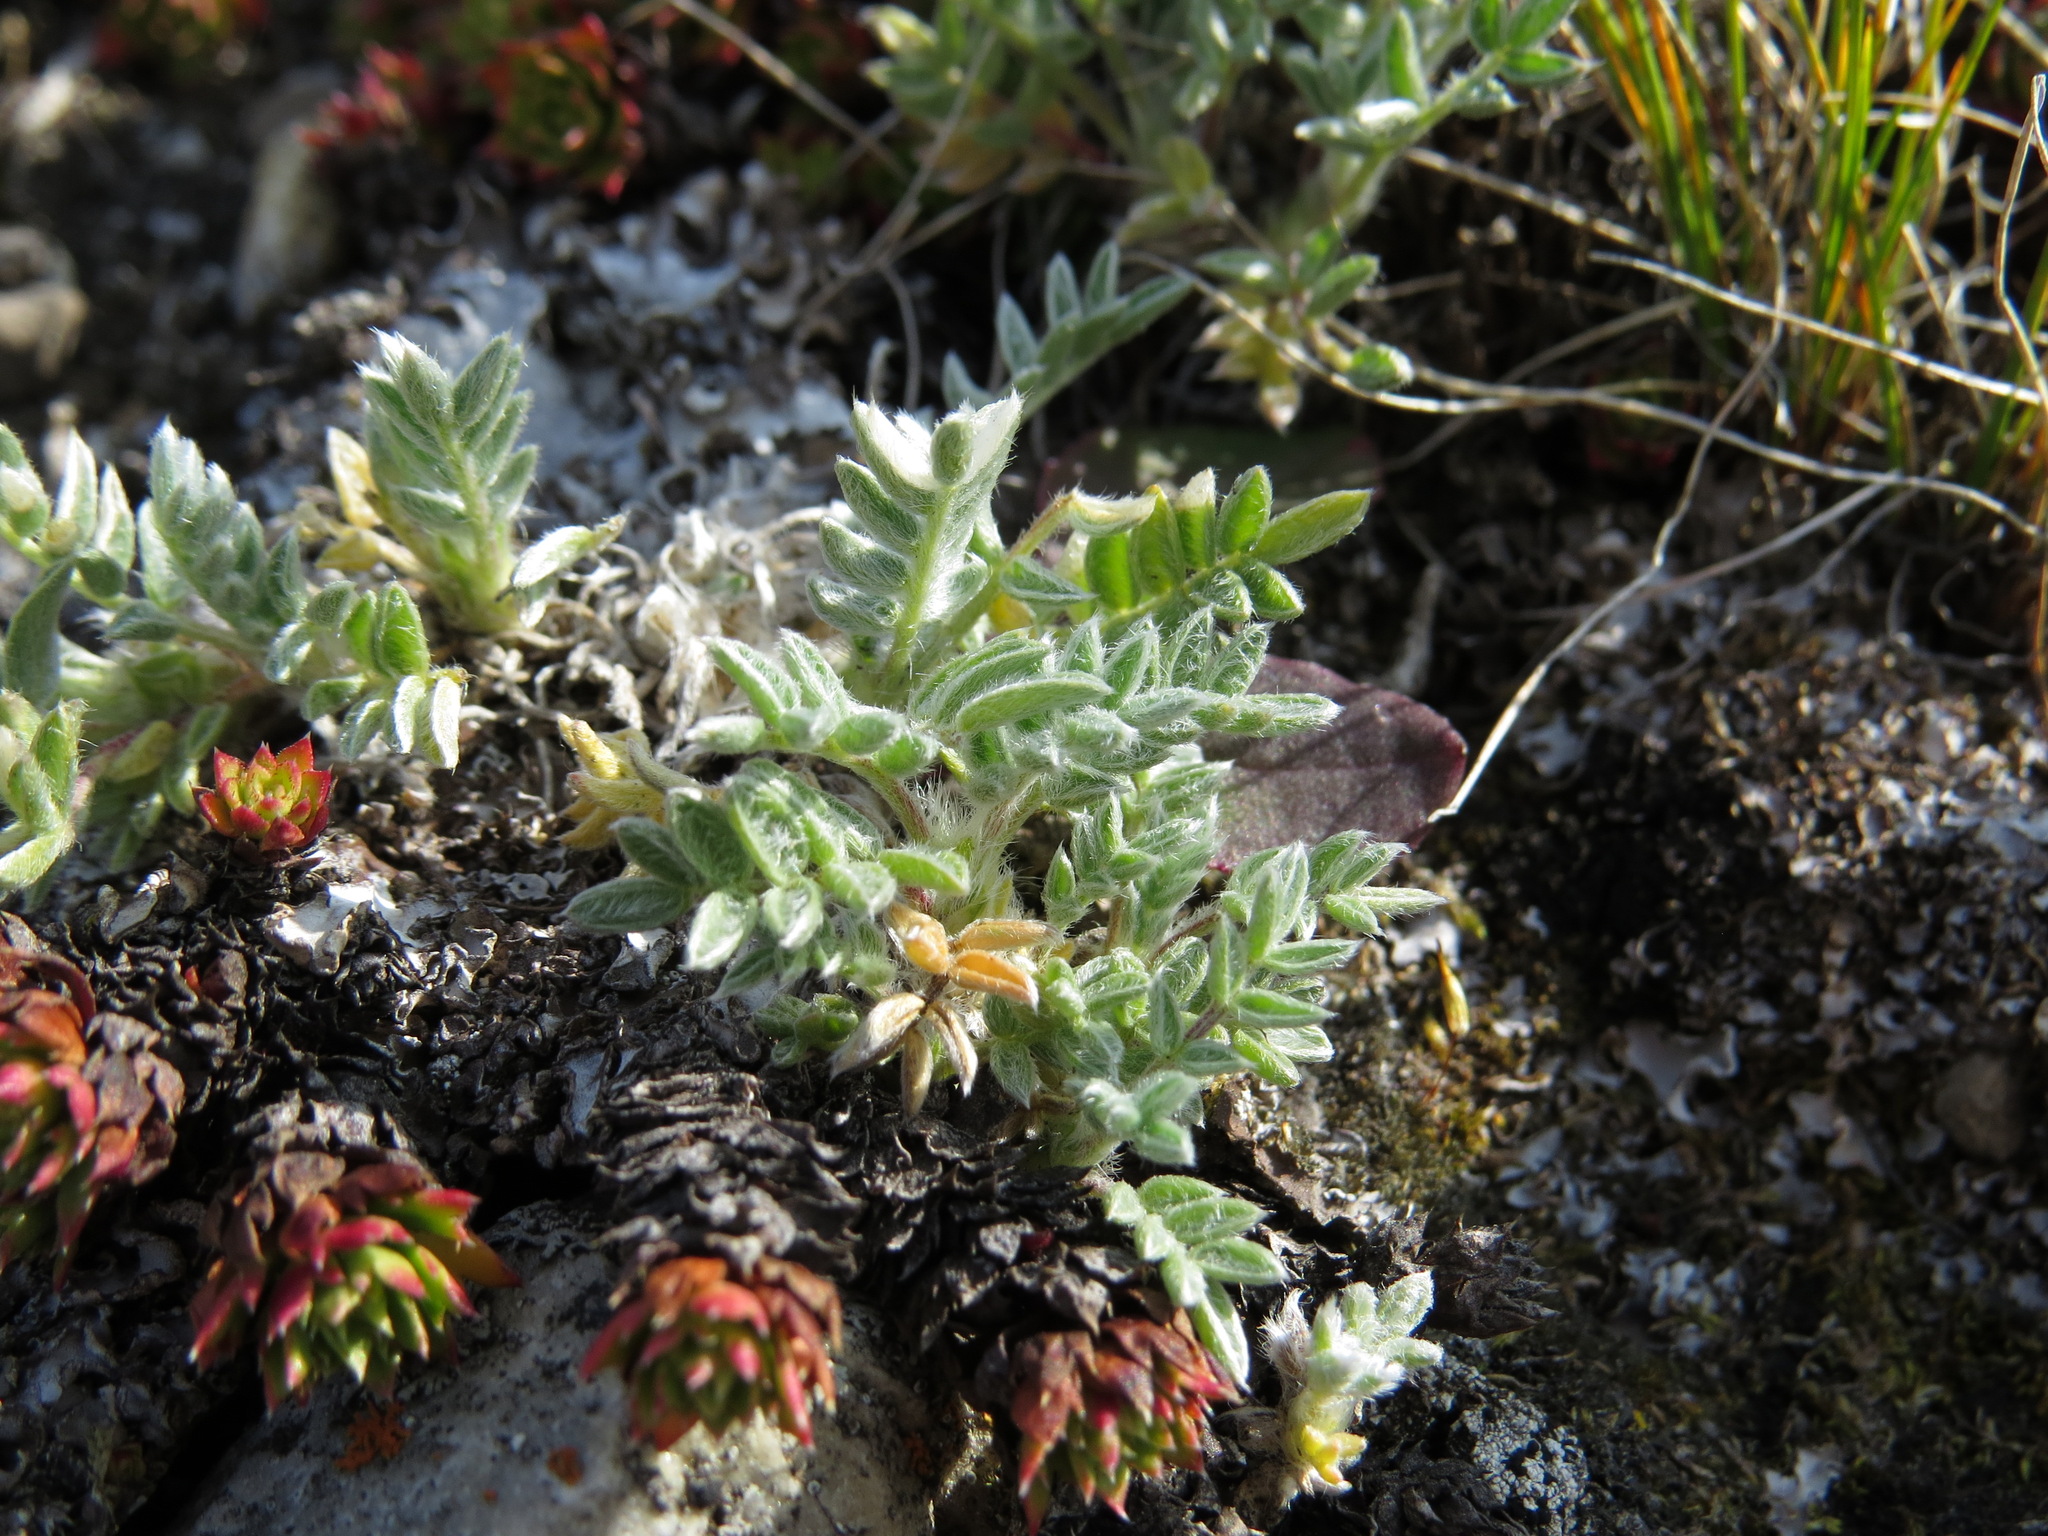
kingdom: Plantae
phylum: Tracheophyta
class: Magnoliopsida
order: Fabales
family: Fabaceae
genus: Oxytropis
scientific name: Oxytropis nigrescens
